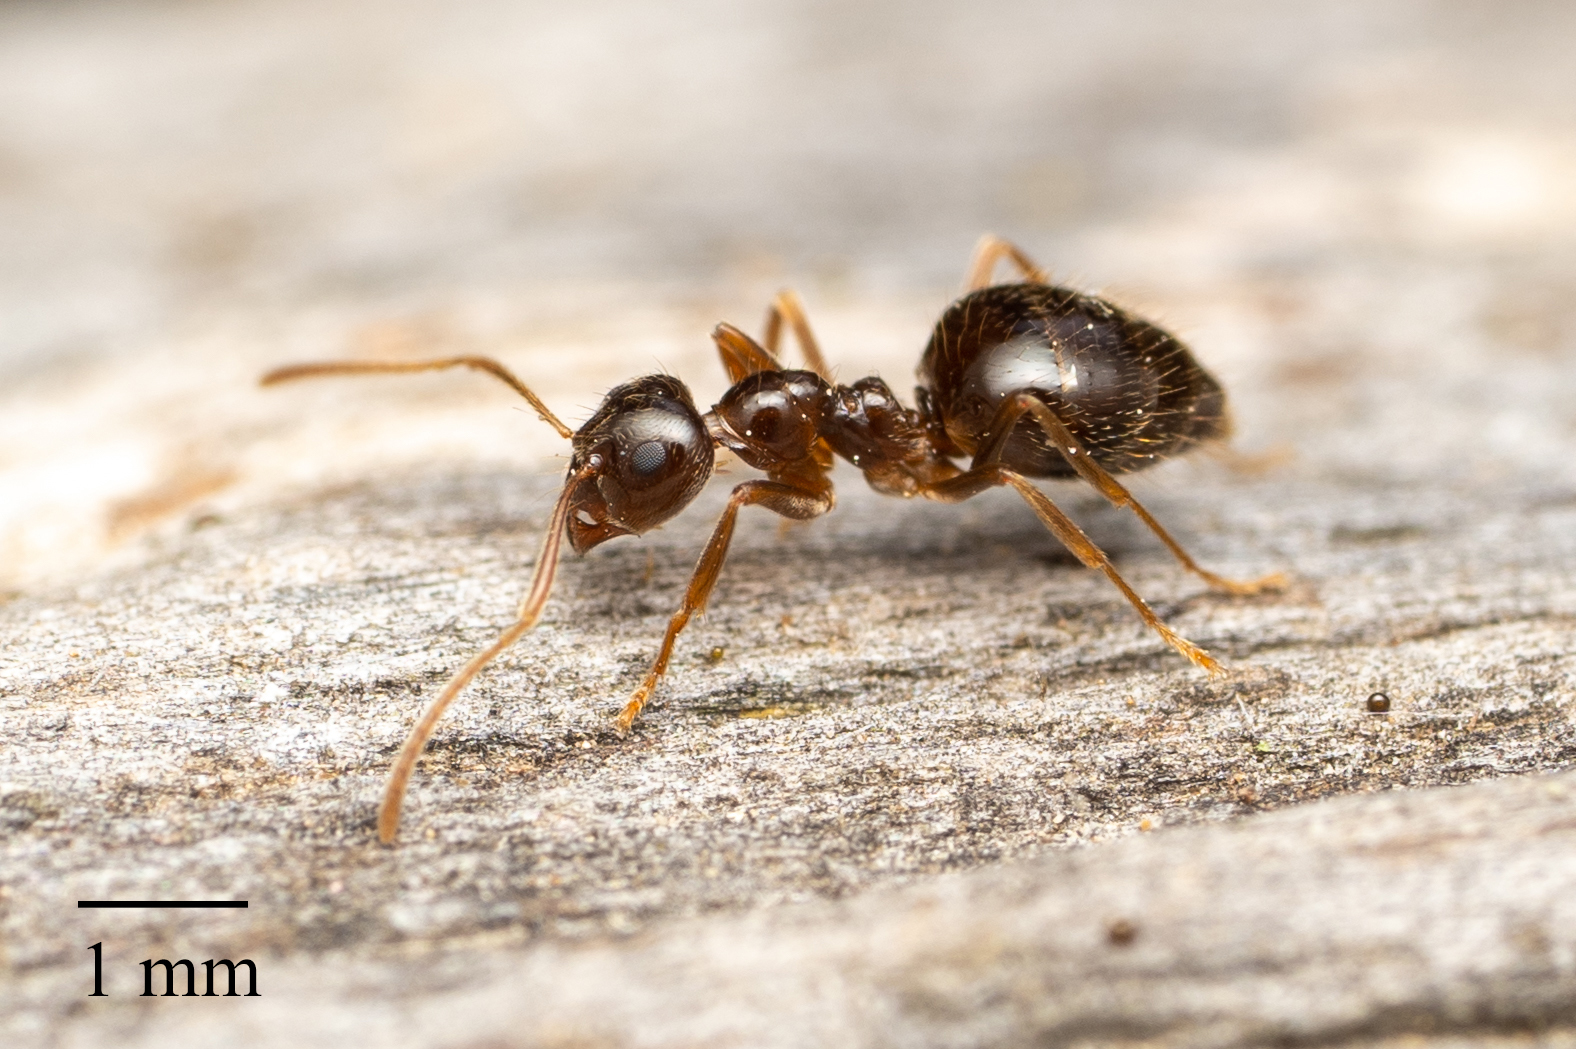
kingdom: Animalia
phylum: Arthropoda
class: Insecta
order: Hymenoptera
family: Formicidae
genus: Prenolepis
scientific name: Prenolepis imparis
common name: Small honey ant
